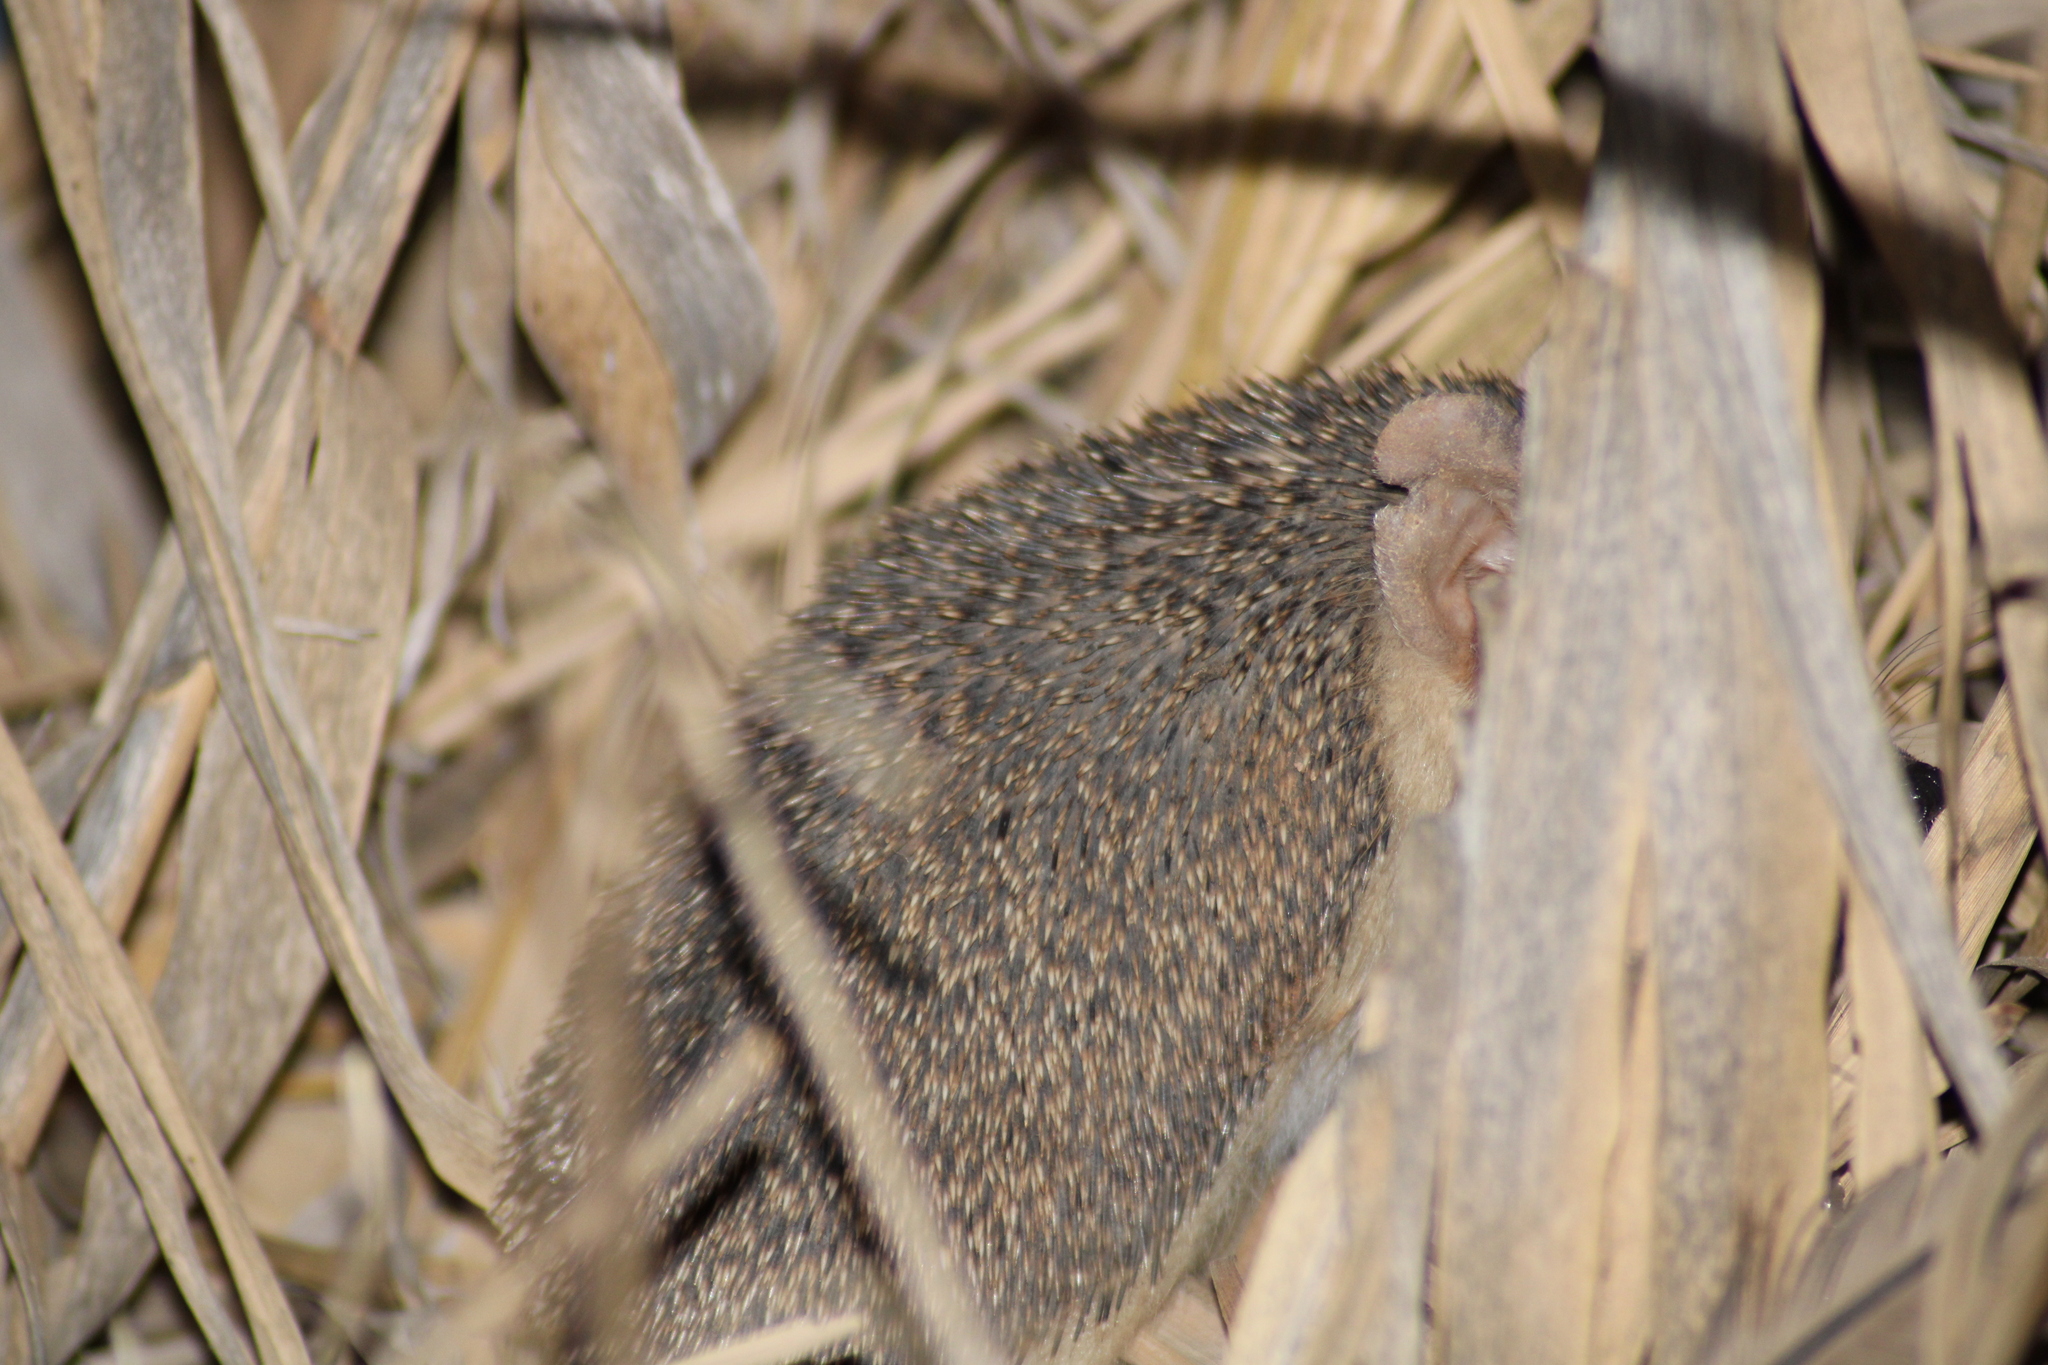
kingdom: Animalia
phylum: Chordata
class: Mammalia
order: Erinaceomorpha
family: Erinaceidae
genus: Hemiechinus
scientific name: Hemiechinus auritus
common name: Long-eared hedgehog
